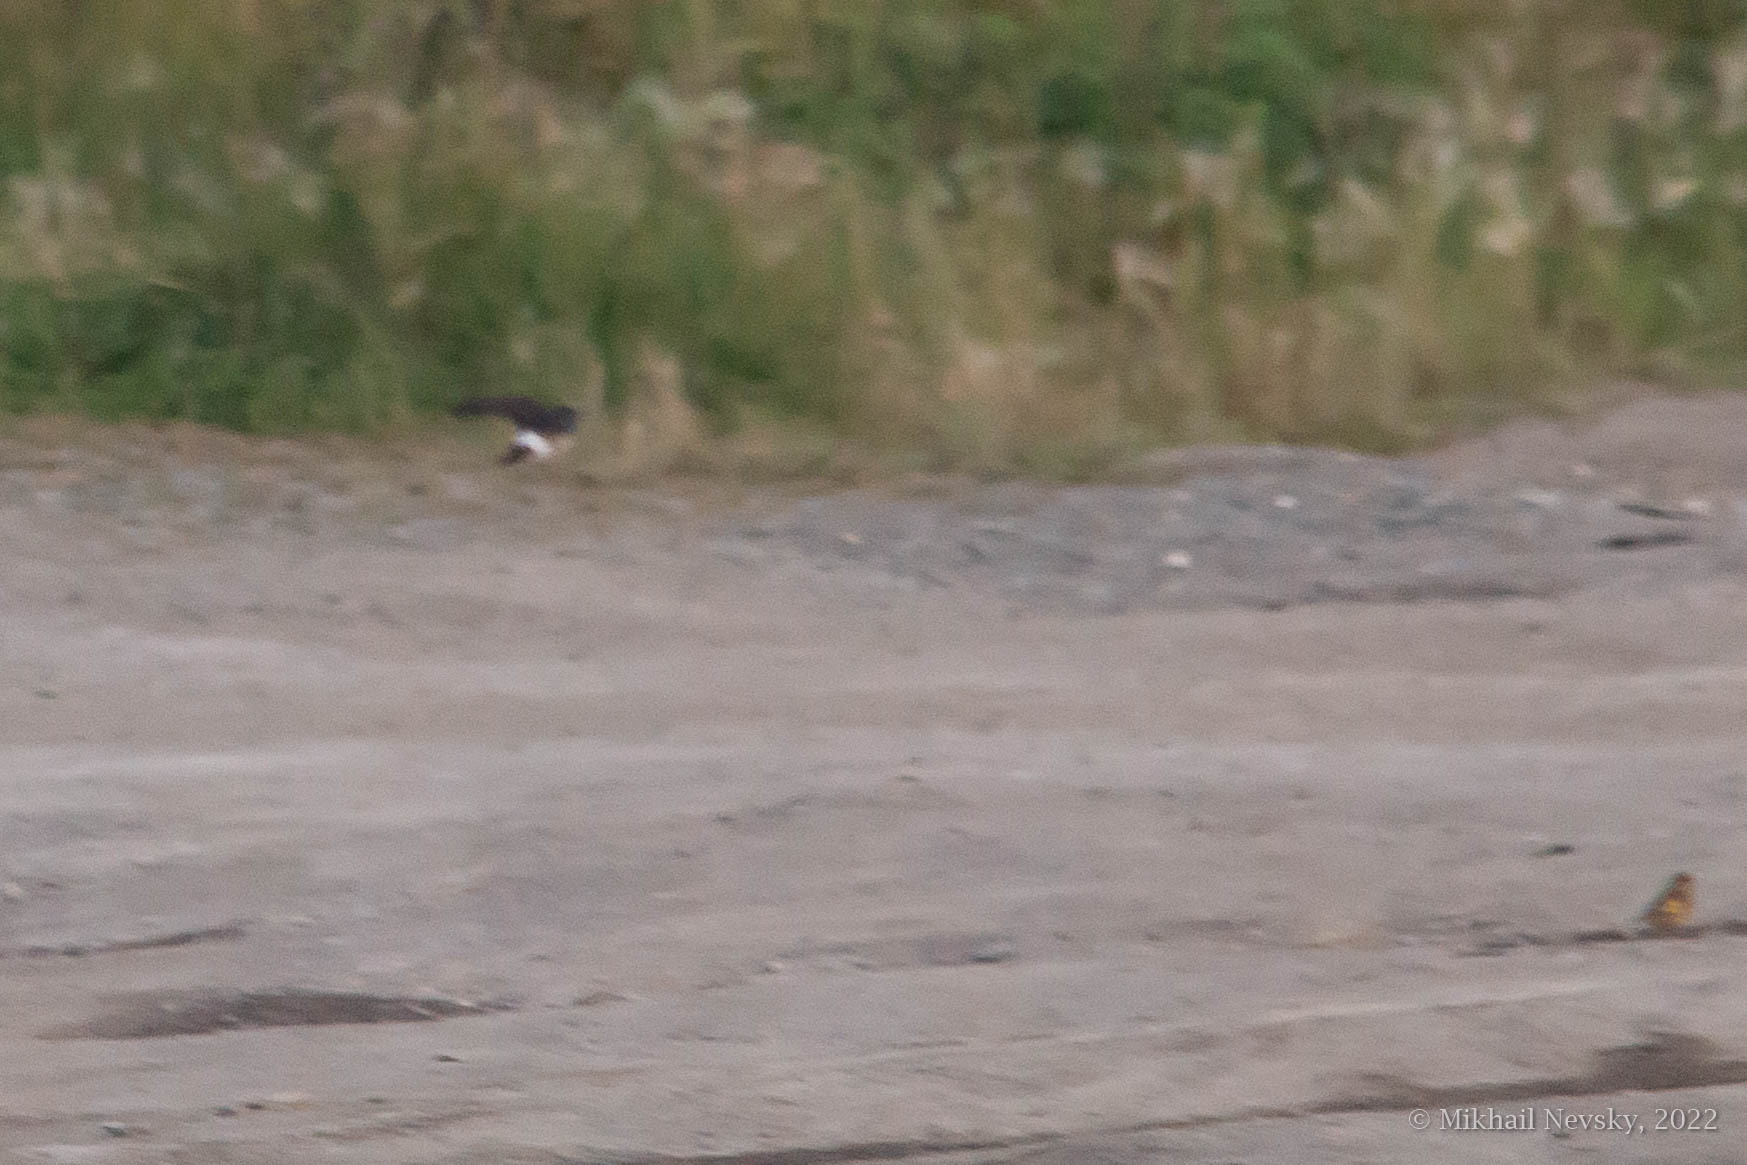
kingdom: Animalia
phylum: Chordata
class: Aves
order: Passeriformes
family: Hirundinidae
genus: Delichon
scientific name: Delichon dasypus
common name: Asian house martin
